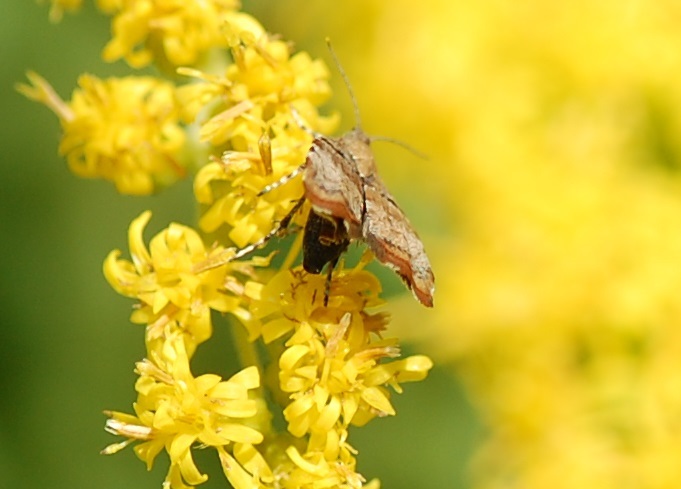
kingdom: Animalia
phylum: Arthropoda
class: Insecta
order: Lepidoptera
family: Choreutidae
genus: Choreutis
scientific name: Choreutis pariana
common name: Apple leaf skeletoniser
